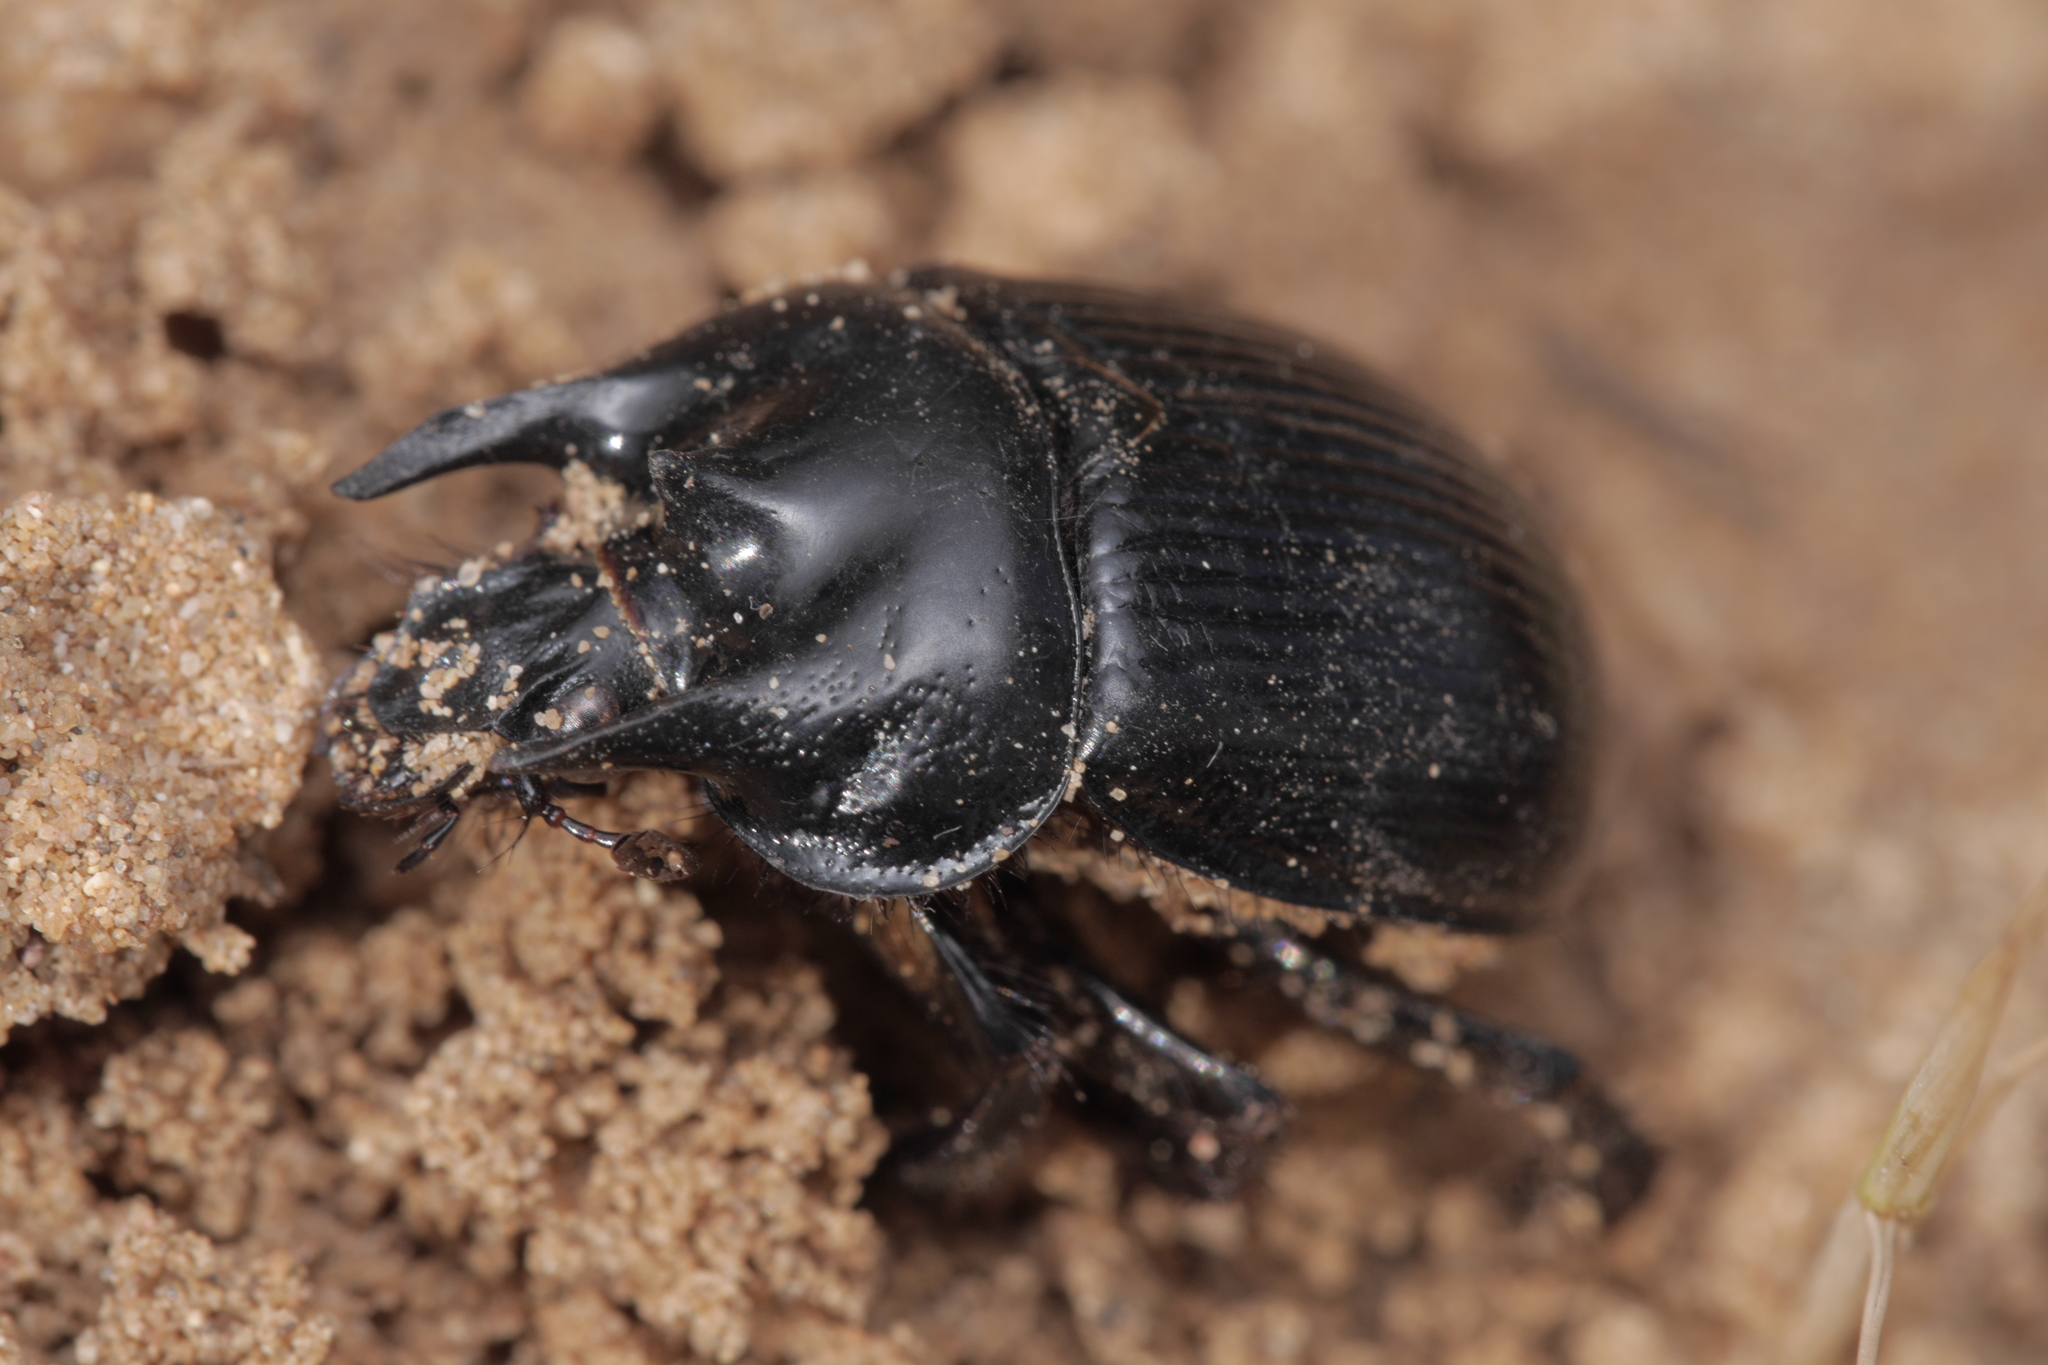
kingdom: Animalia
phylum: Arthropoda
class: Insecta
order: Coleoptera
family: Geotrupidae
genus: Typhaeus
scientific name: Typhaeus typhoeus
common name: Minotaur beetle
